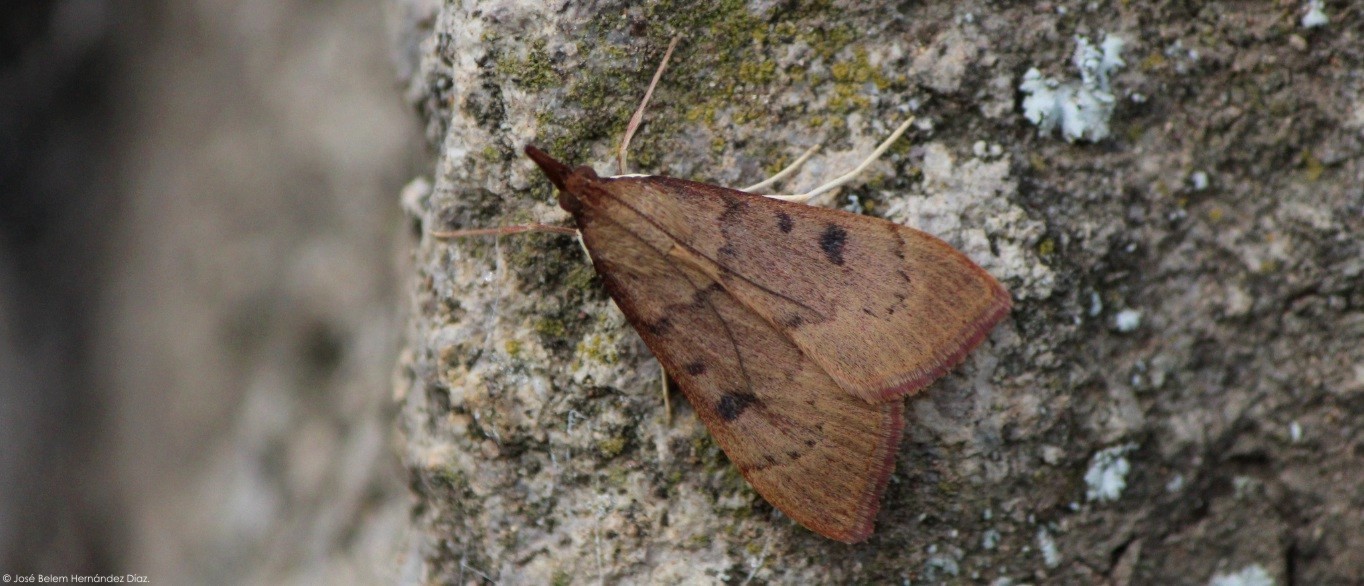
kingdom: Animalia
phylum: Arthropoda
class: Insecta
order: Lepidoptera
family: Crambidae
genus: Uresiphita
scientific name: Uresiphita reversalis
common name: Genista broom moth
